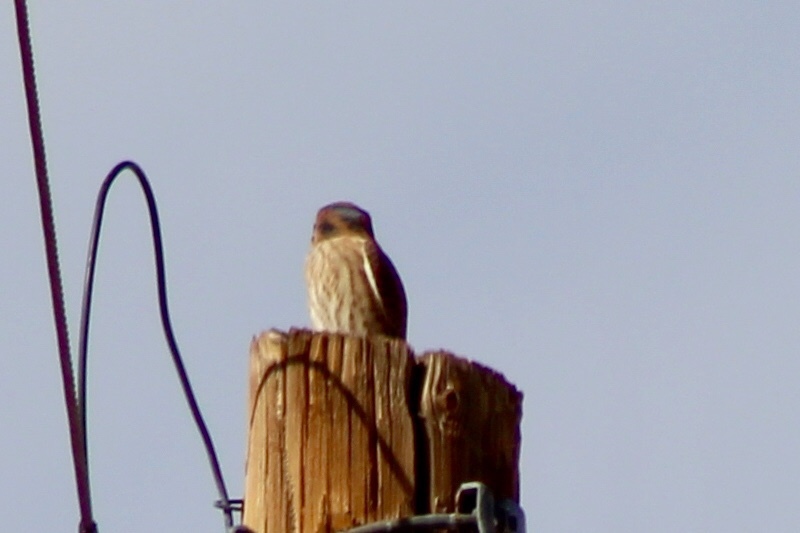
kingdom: Animalia
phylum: Chordata
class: Aves
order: Falconiformes
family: Falconidae
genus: Falco
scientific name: Falco sparverius
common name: American kestrel
